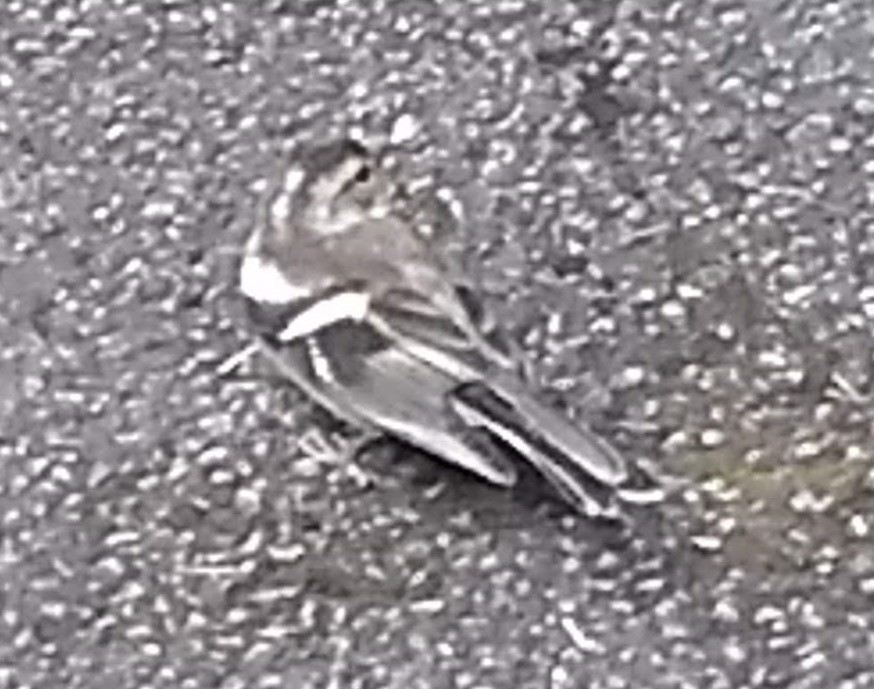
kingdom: Animalia
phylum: Chordata
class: Aves
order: Passeriformes
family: Fringillidae
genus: Fringilla
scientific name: Fringilla coelebs
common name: Common chaffinch
